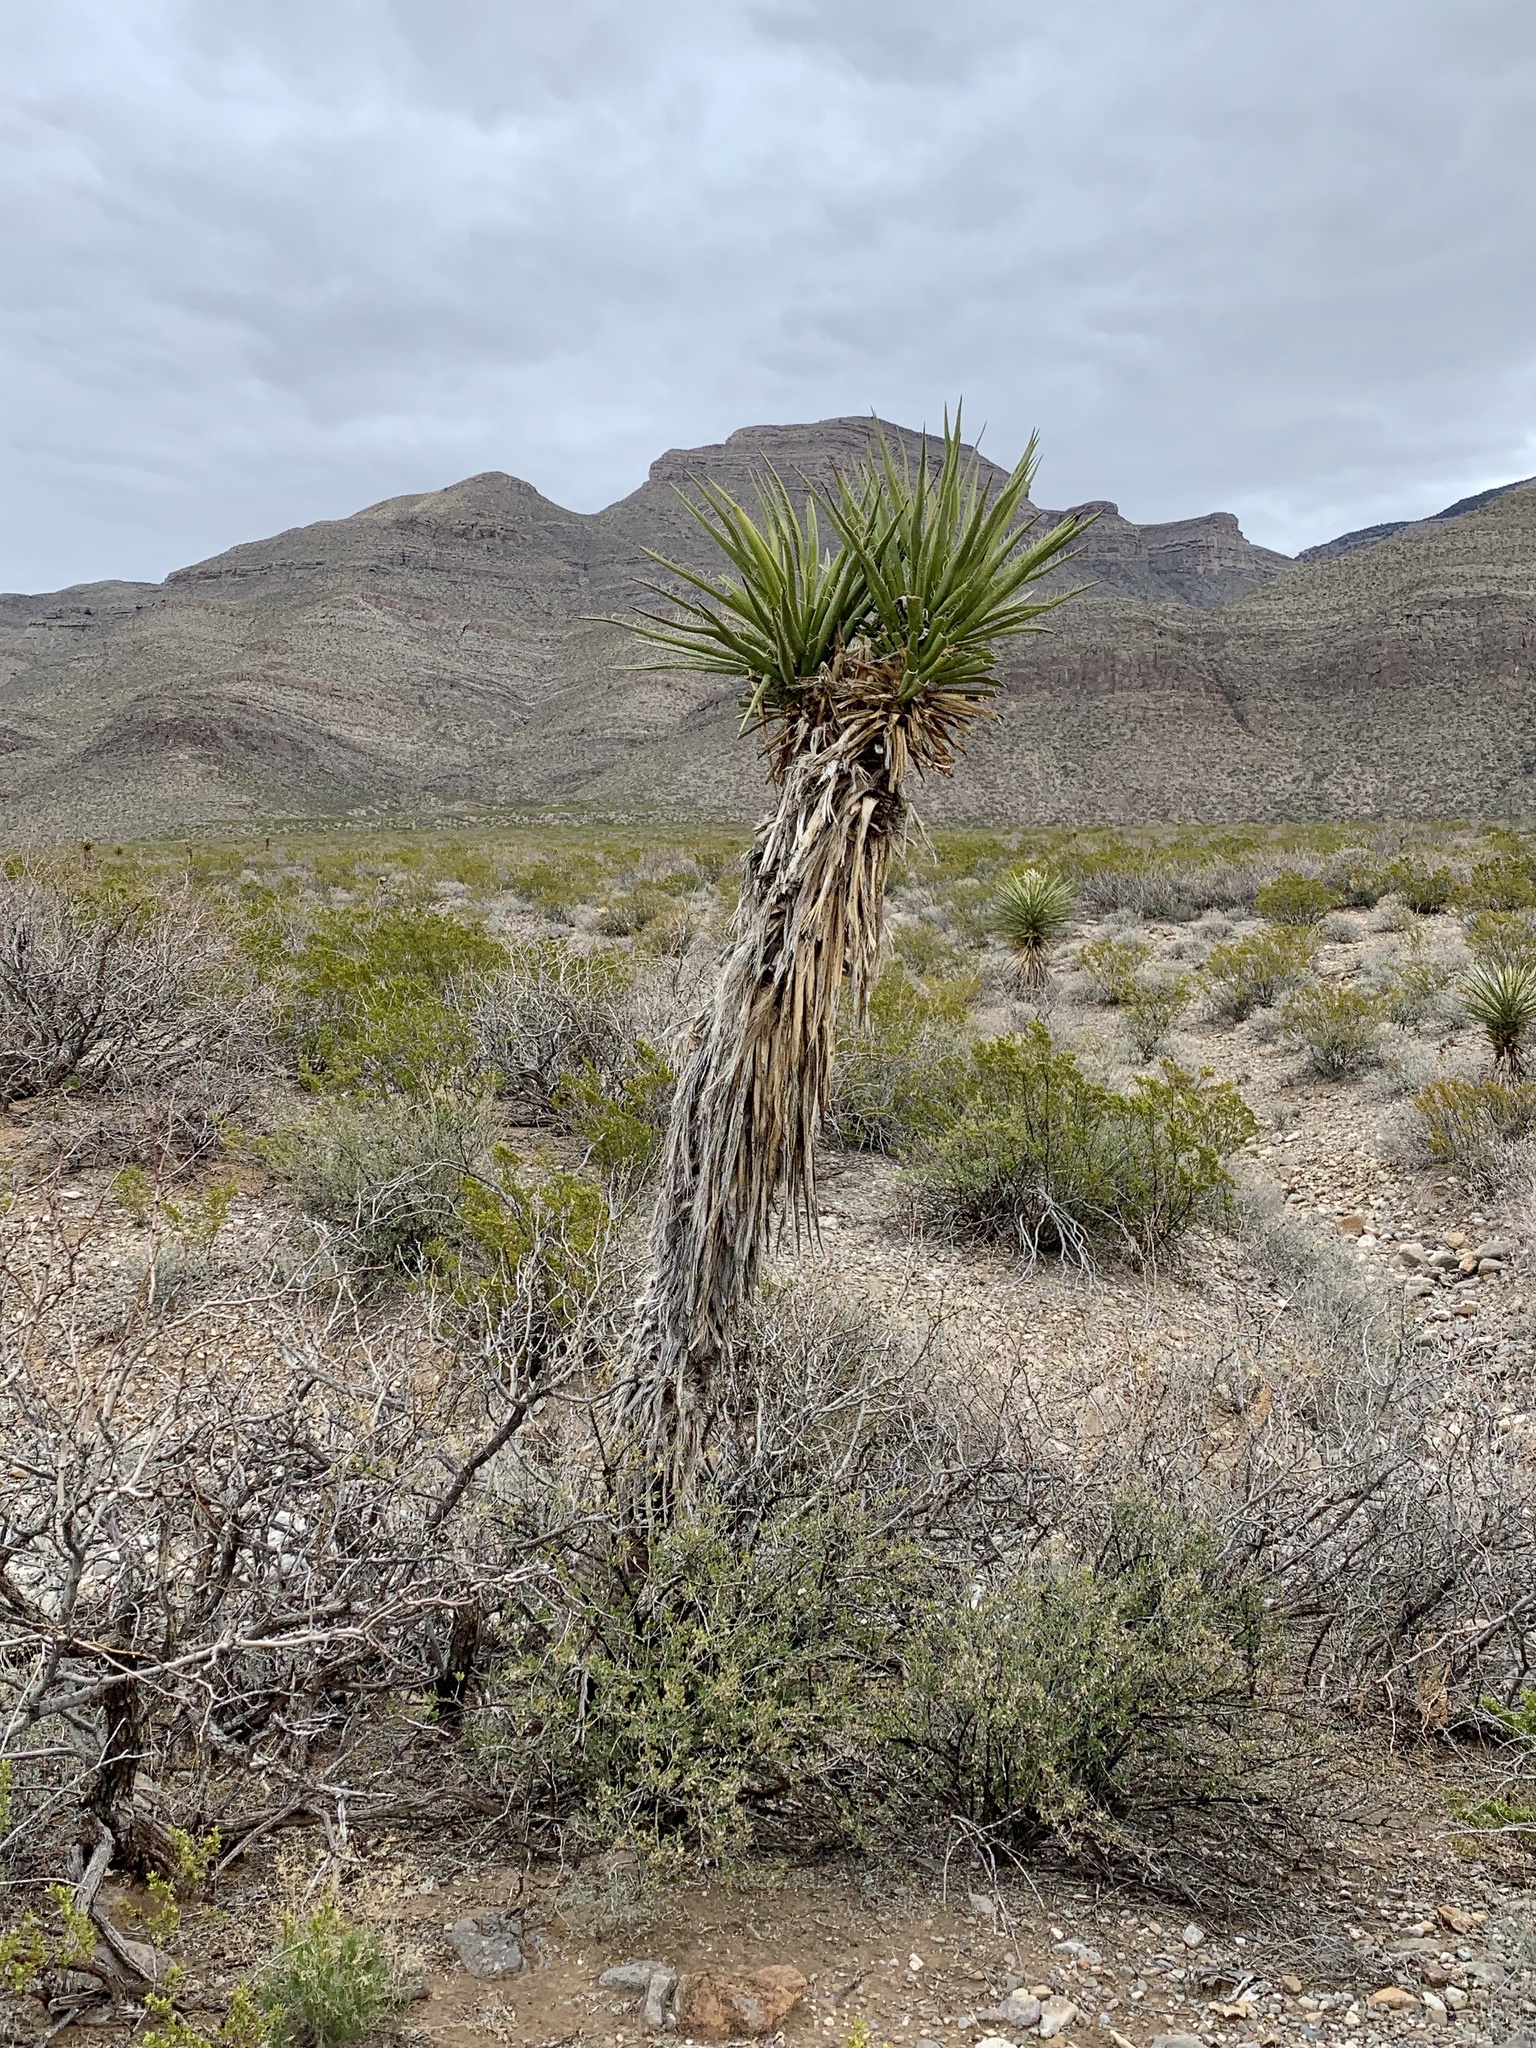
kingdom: Plantae
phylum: Tracheophyta
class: Liliopsida
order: Asparagales
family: Asparagaceae
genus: Yucca
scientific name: Yucca treculiana
